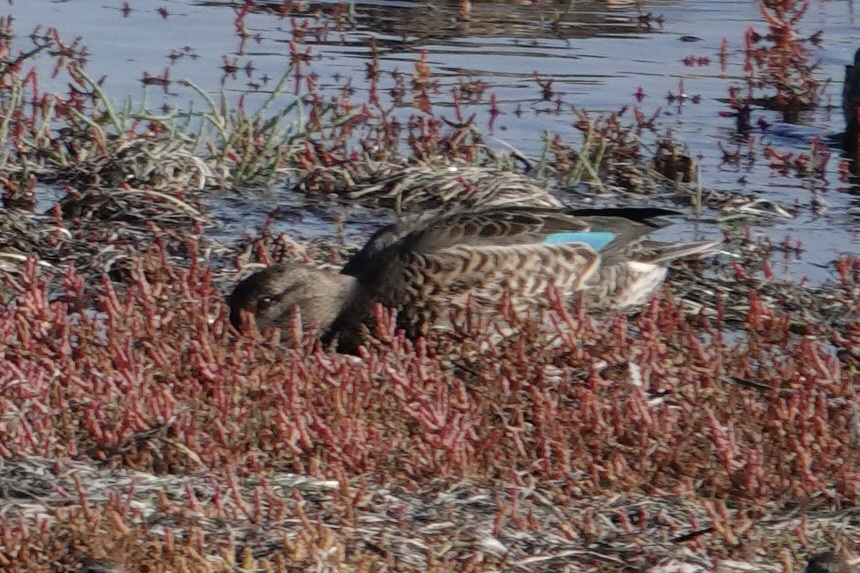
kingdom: Animalia
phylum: Chordata
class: Aves
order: Anseriformes
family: Anatidae
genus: Anas
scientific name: Anas crecca
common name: Eurasian teal
